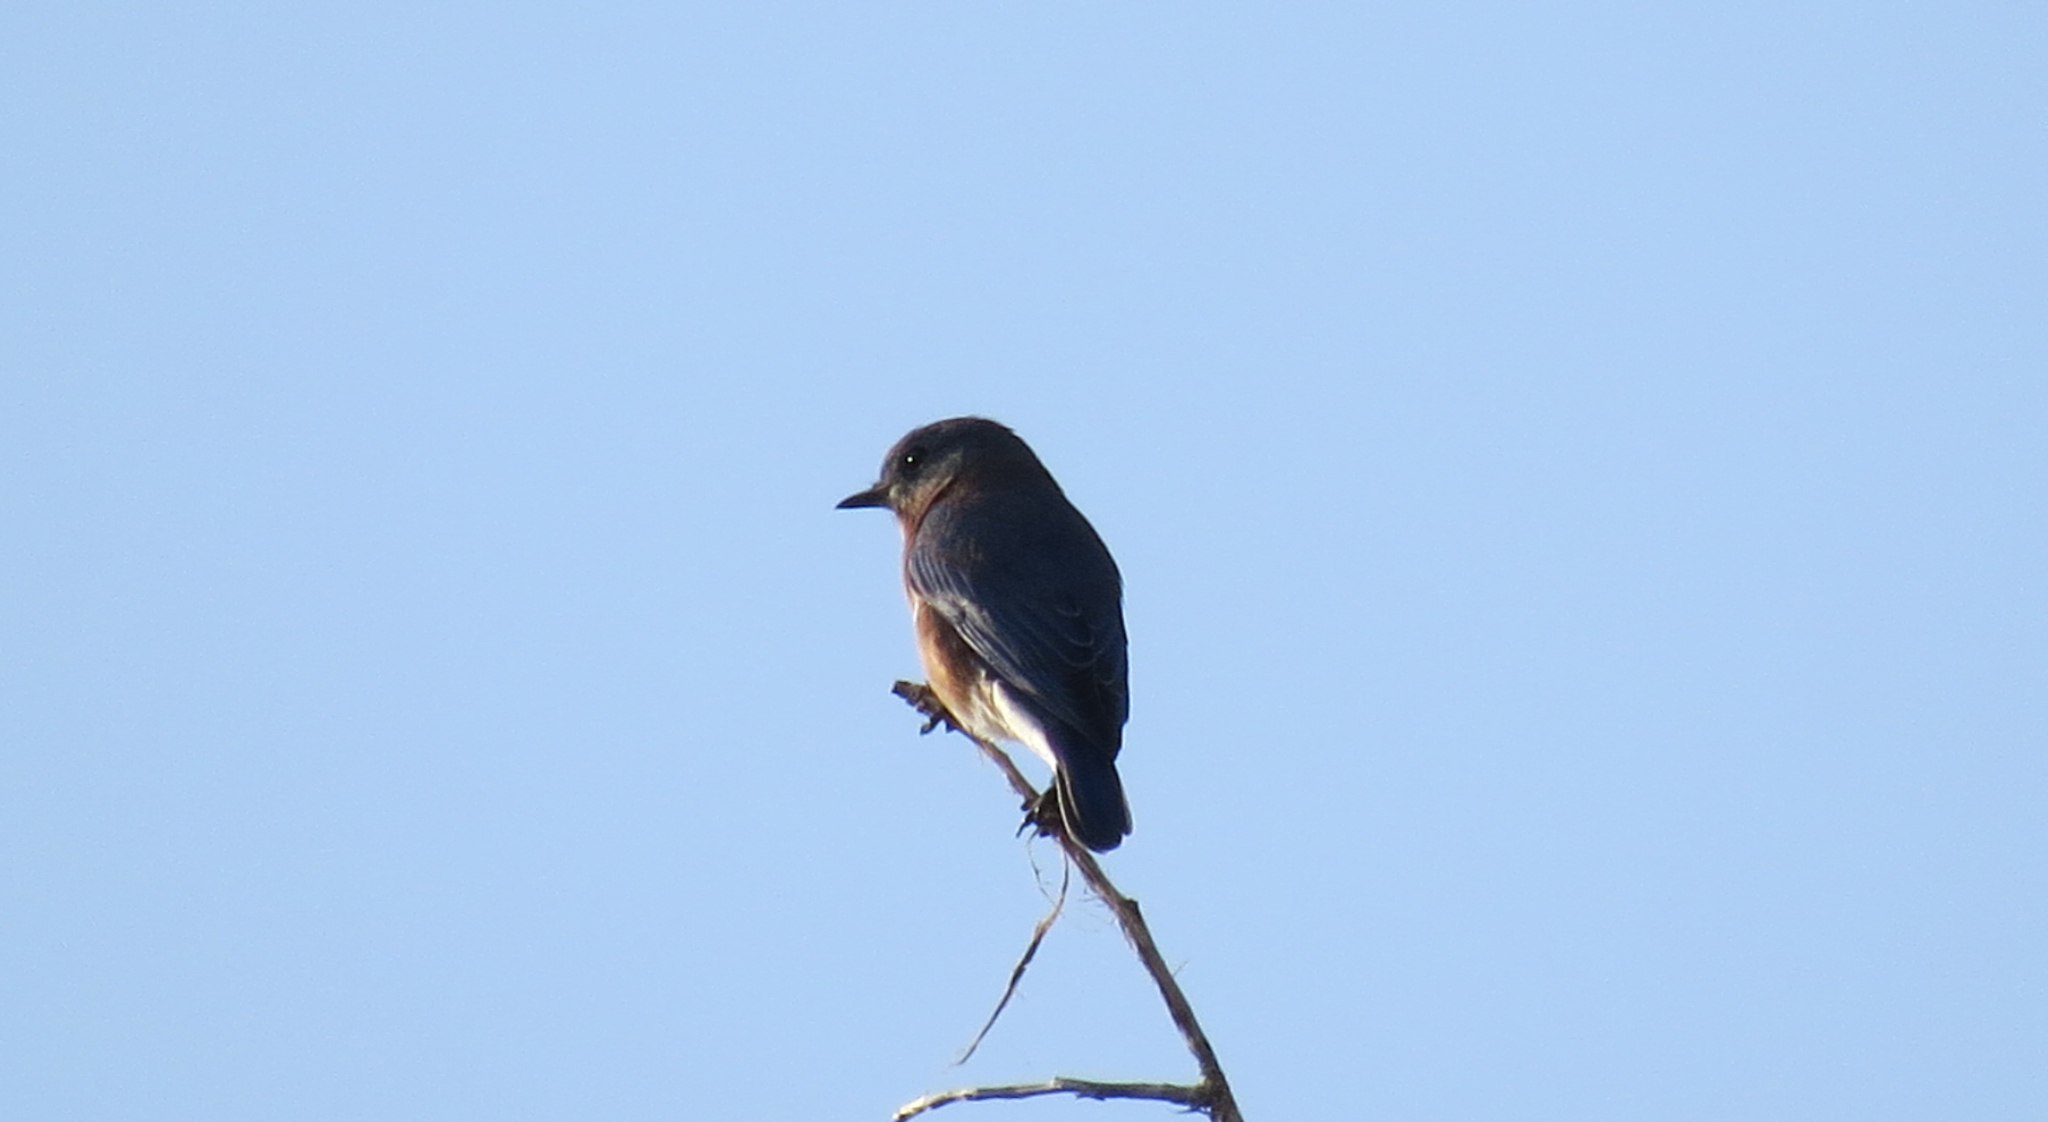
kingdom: Animalia
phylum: Chordata
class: Aves
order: Passeriformes
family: Turdidae
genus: Sialia
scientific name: Sialia sialis
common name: Eastern bluebird
